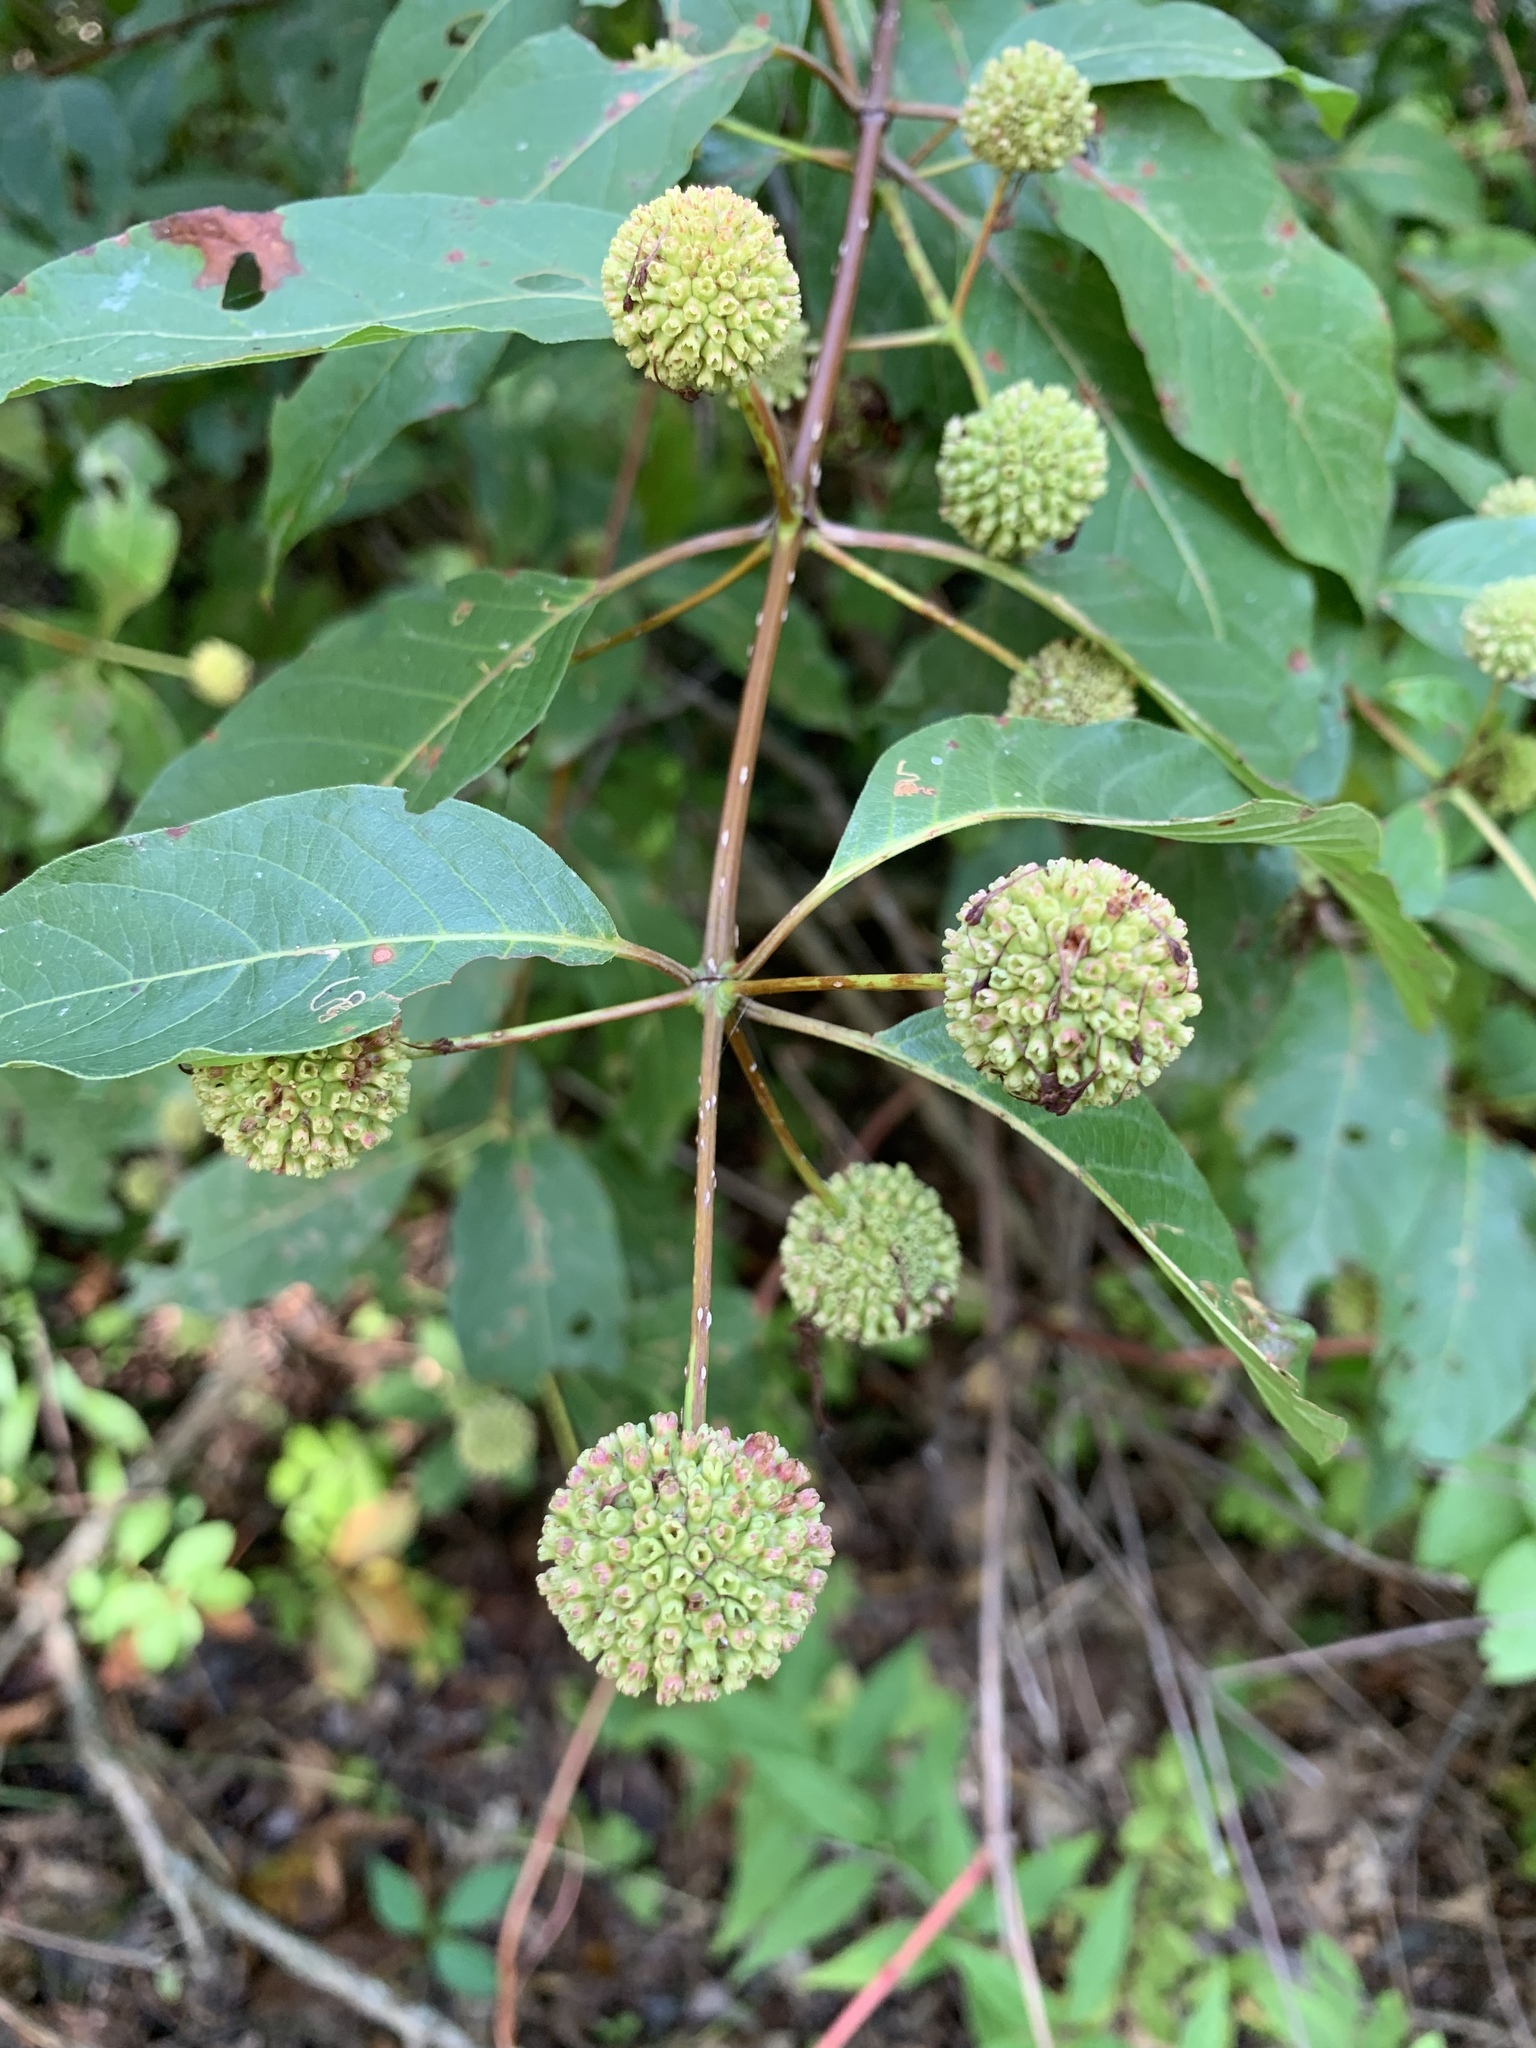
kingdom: Plantae
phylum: Tracheophyta
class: Magnoliopsida
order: Gentianales
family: Rubiaceae
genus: Cephalanthus
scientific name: Cephalanthus occidentalis
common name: Button-willow
